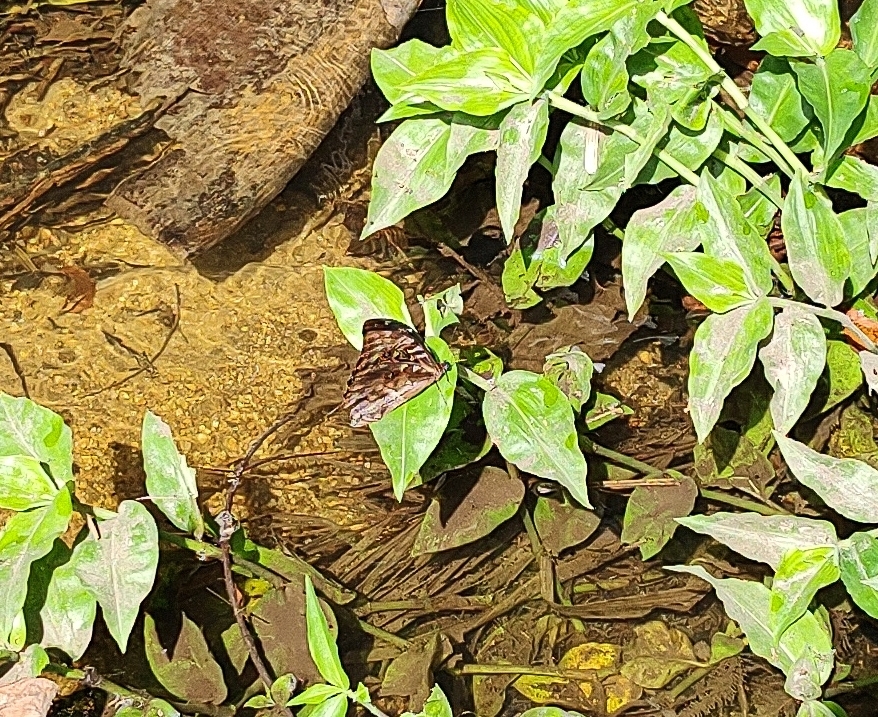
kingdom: Animalia
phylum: Arthropoda
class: Insecta
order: Lepidoptera
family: Nymphalidae
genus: Morpho
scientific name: Morpho hercules
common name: Hercules morpho
